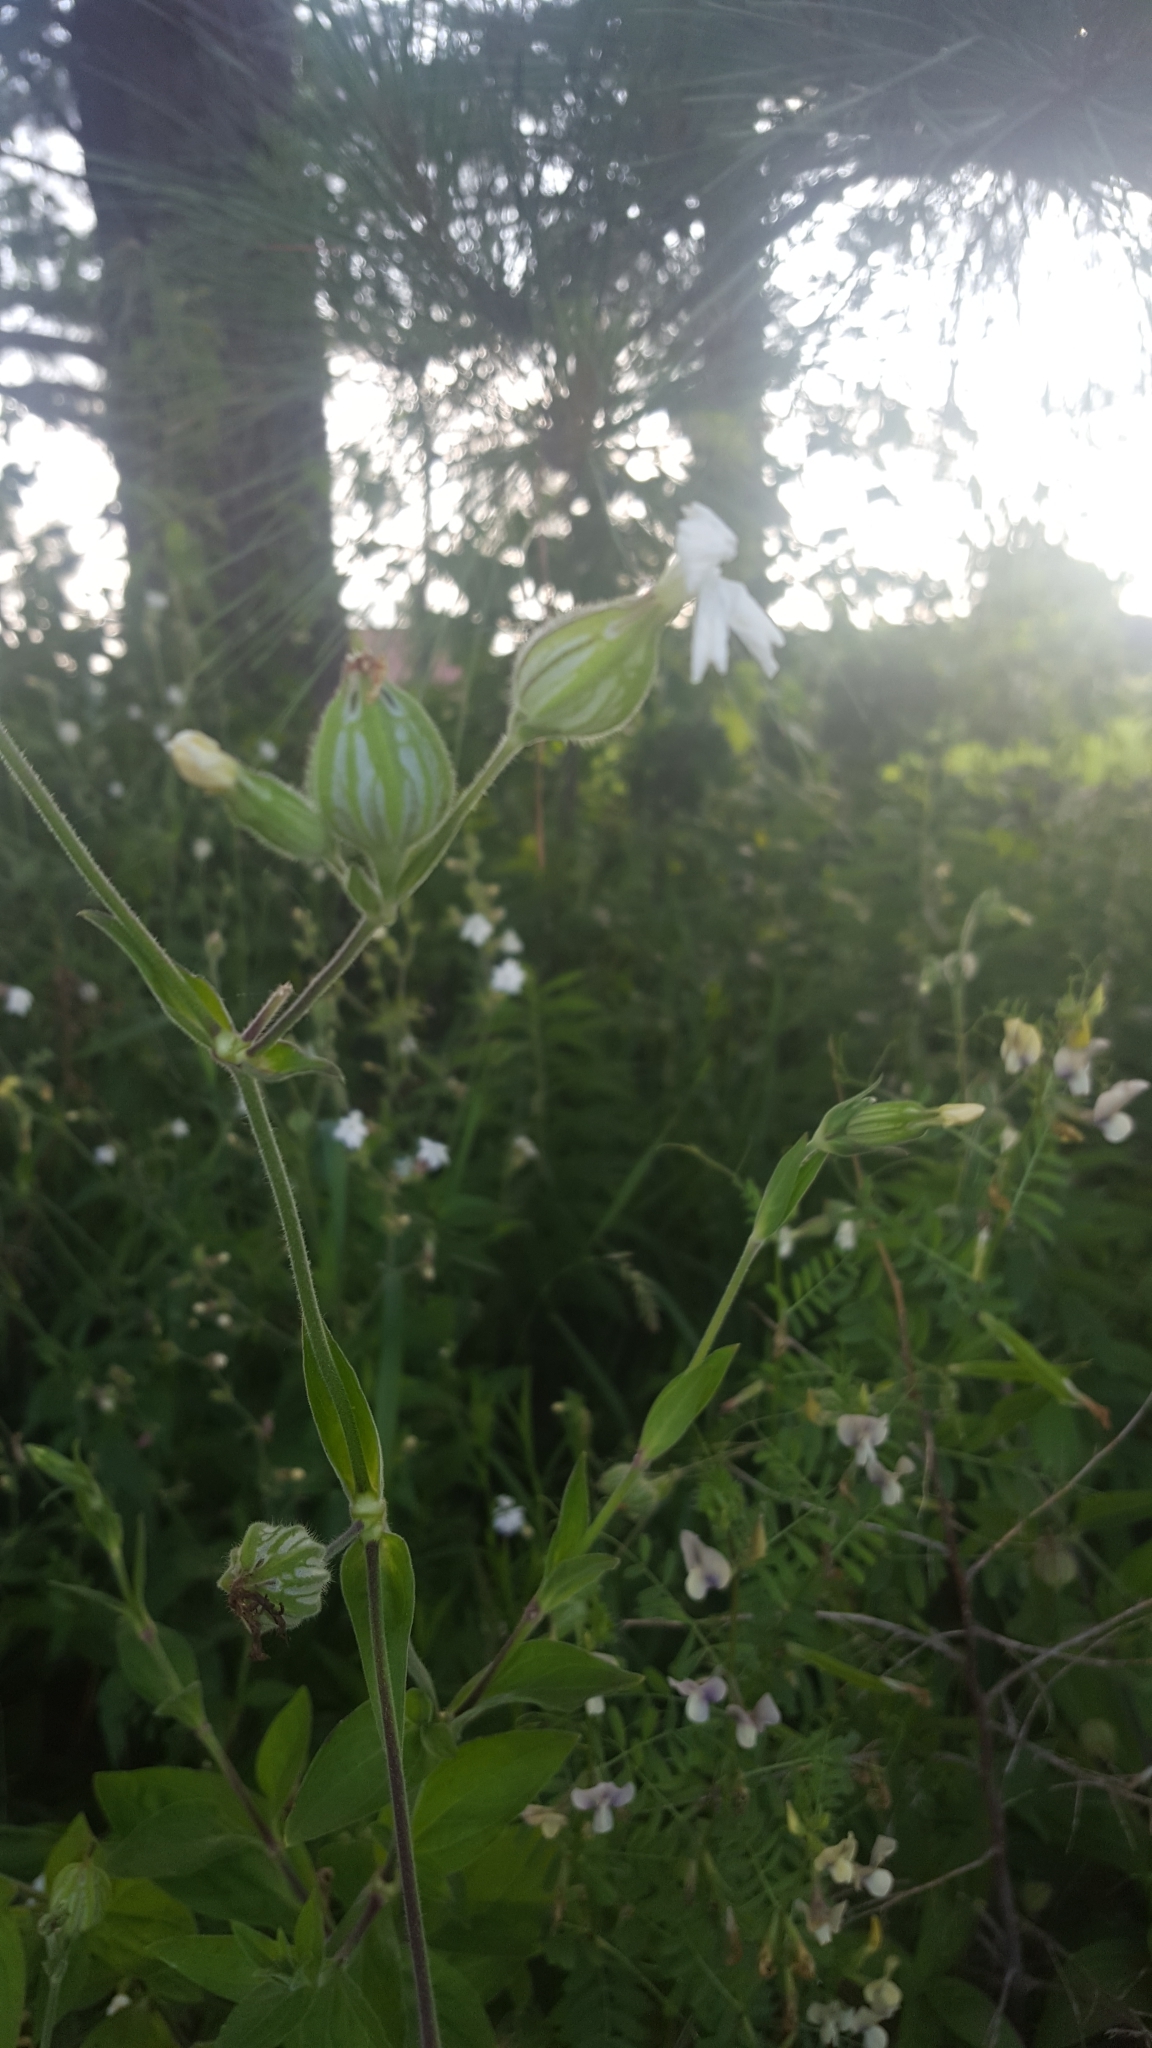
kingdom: Plantae
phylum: Tracheophyta
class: Magnoliopsida
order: Caryophyllales
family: Caryophyllaceae
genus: Silene
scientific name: Silene latifolia
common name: White campion
